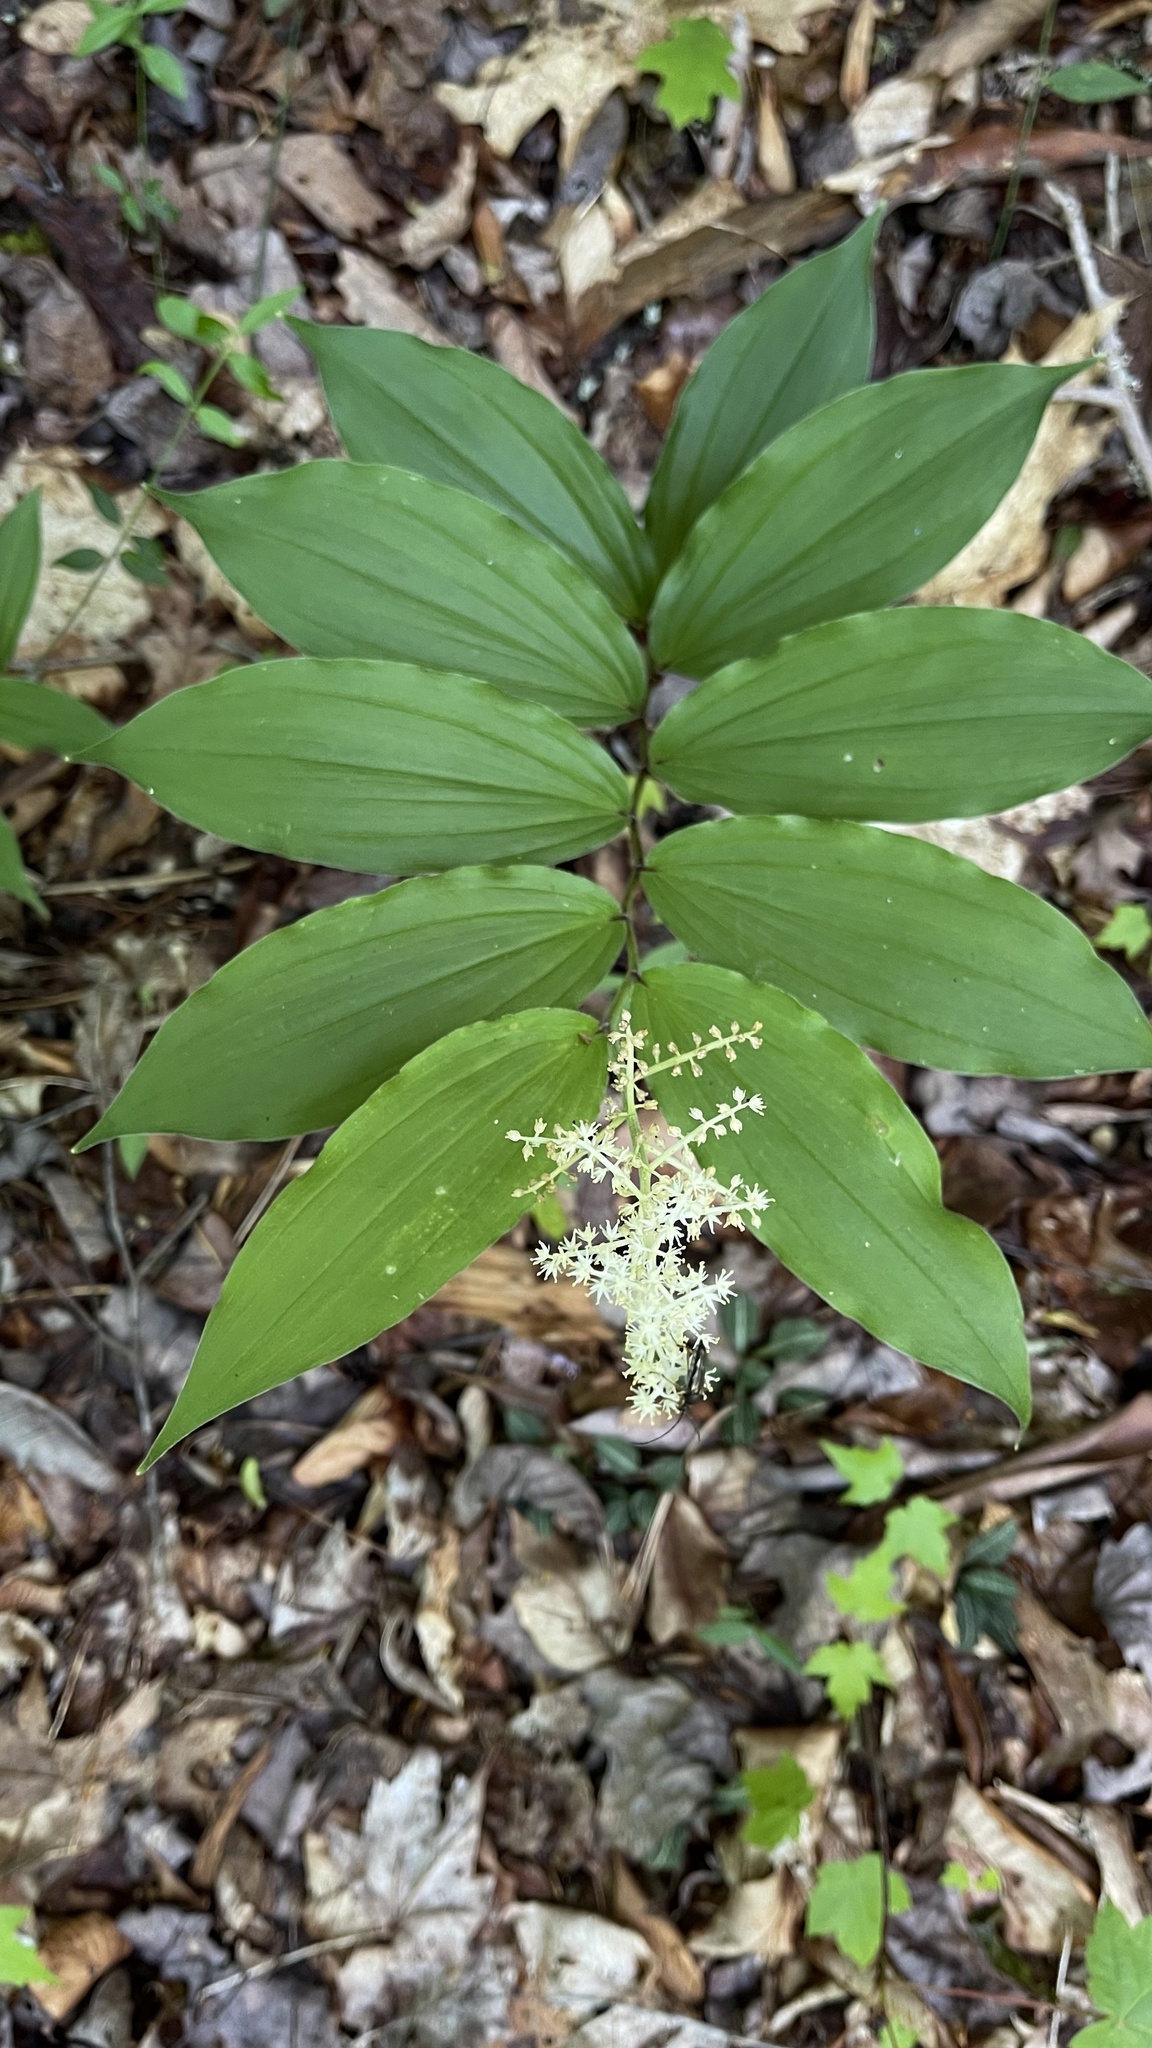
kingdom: Plantae
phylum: Tracheophyta
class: Liliopsida
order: Asparagales
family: Asparagaceae
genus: Maianthemum
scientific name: Maianthemum racemosum
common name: False spikenard
